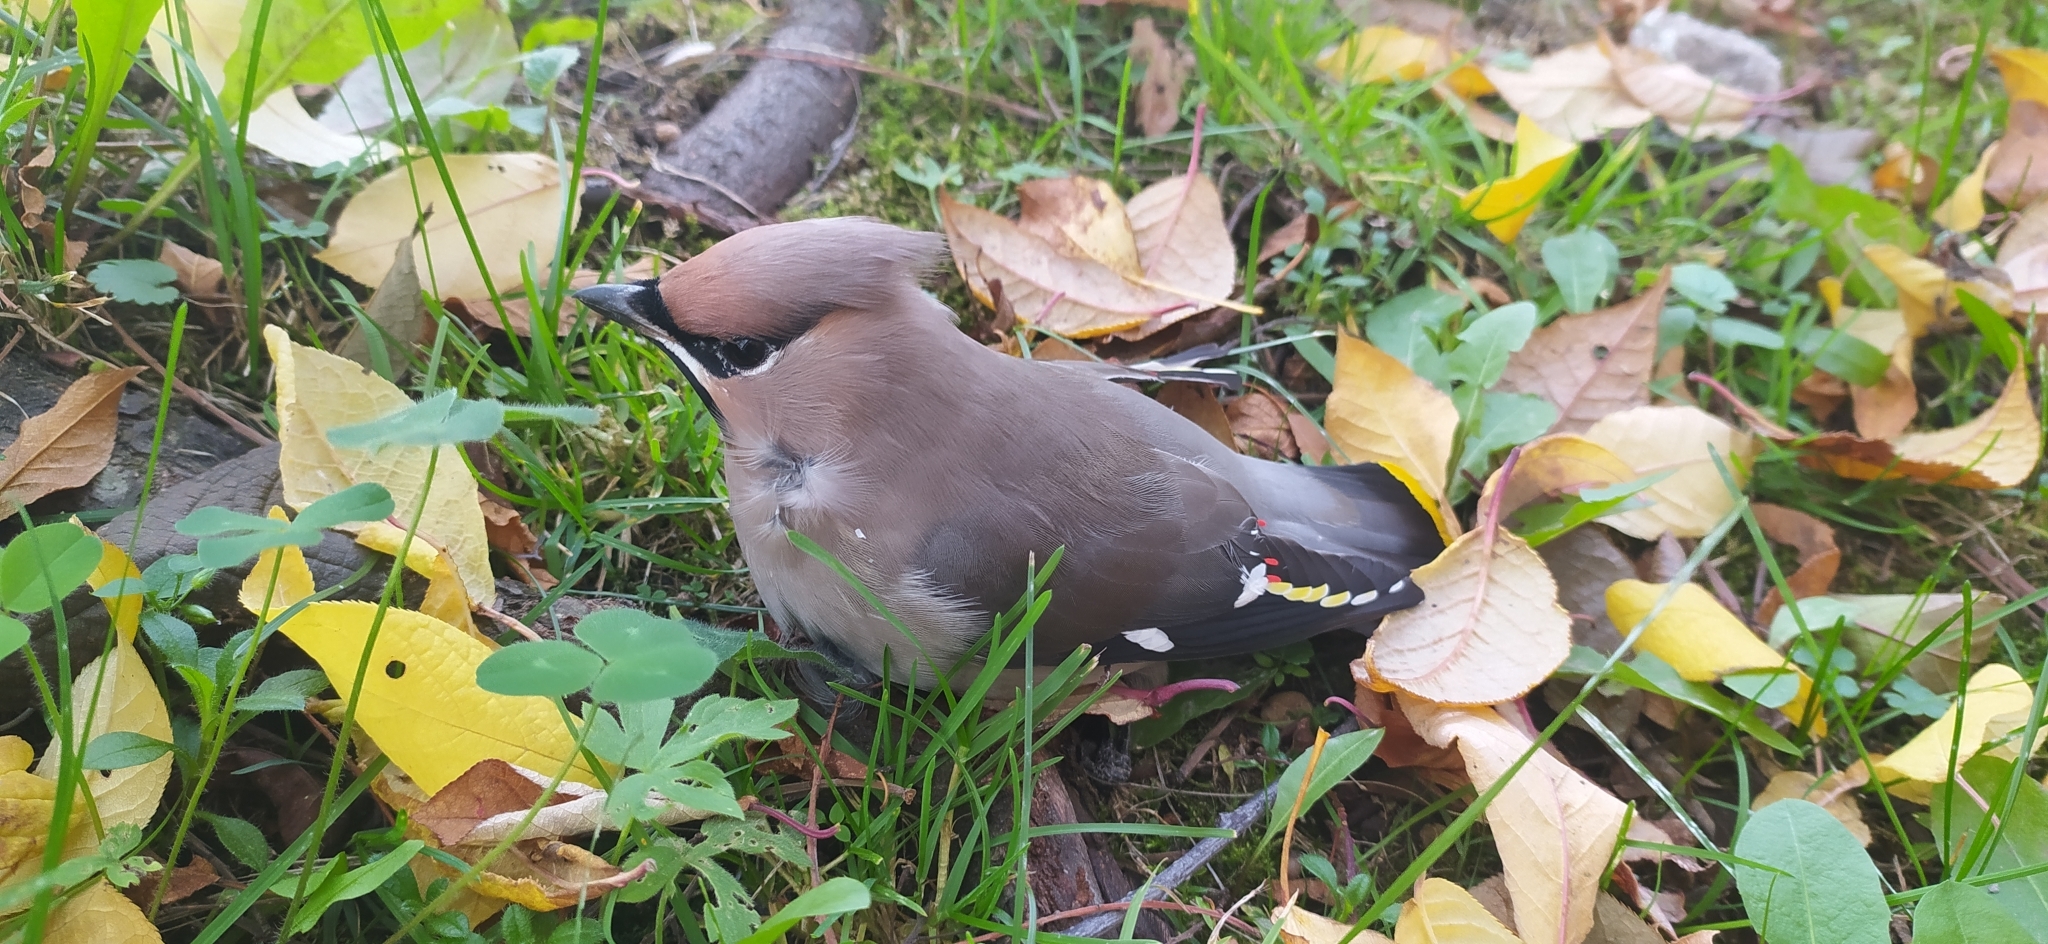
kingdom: Animalia
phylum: Chordata
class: Aves
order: Passeriformes
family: Bombycillidae
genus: Bombycilla
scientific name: Bombycilla garrulus
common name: Bohemian waxwing
